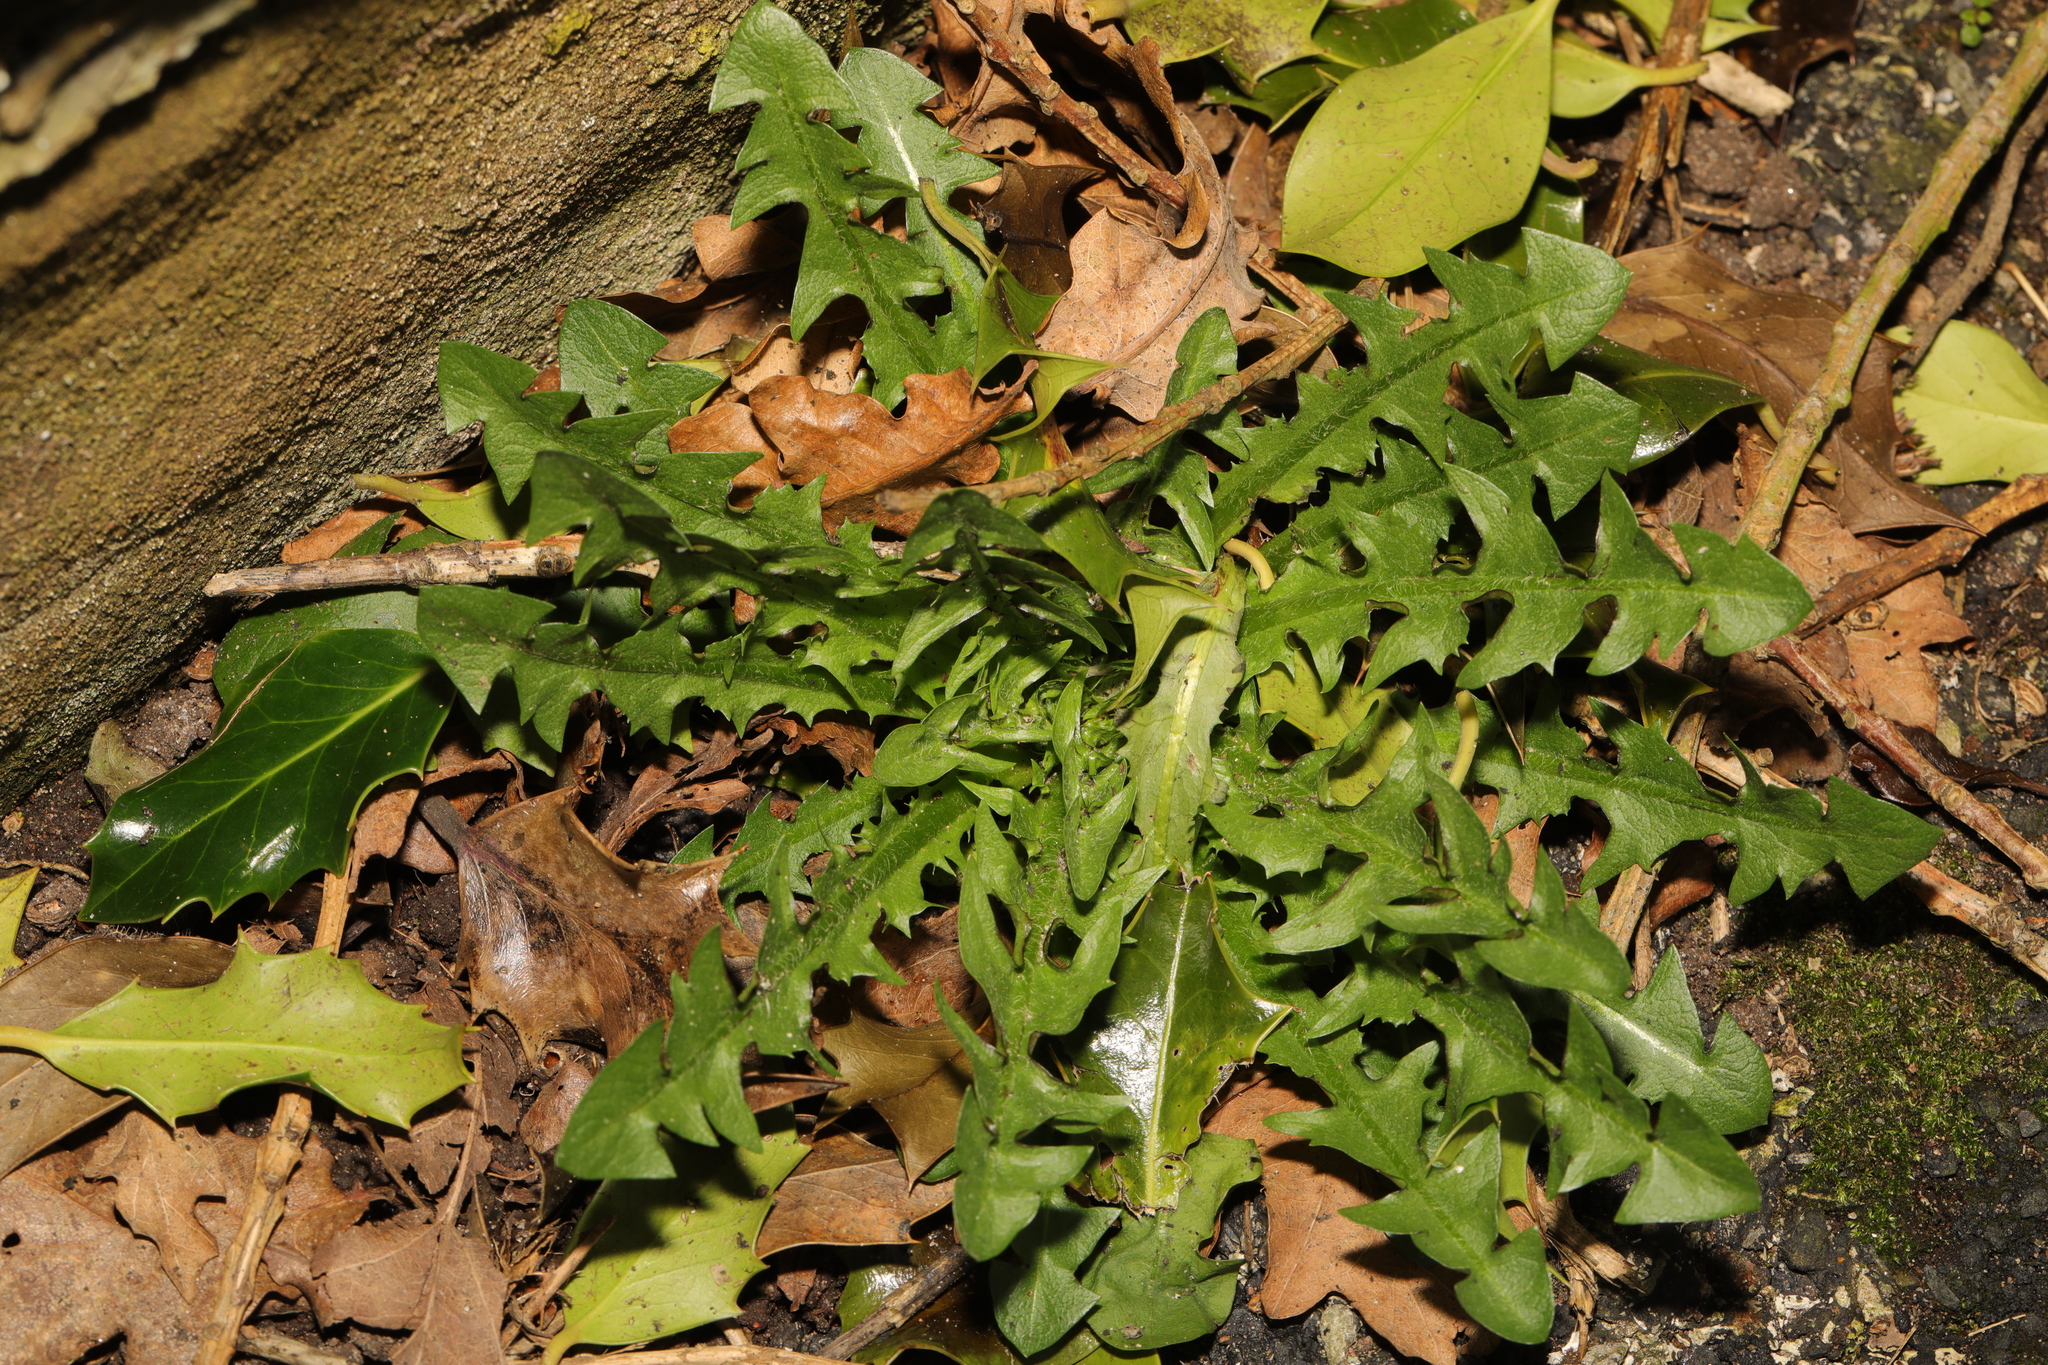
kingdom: Plantae
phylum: Tracheophyta
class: Magnoliopsida
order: Asterales
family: Asteraceae
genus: Taraxacum
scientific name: Taraxacum officinale
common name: Common dandelion
